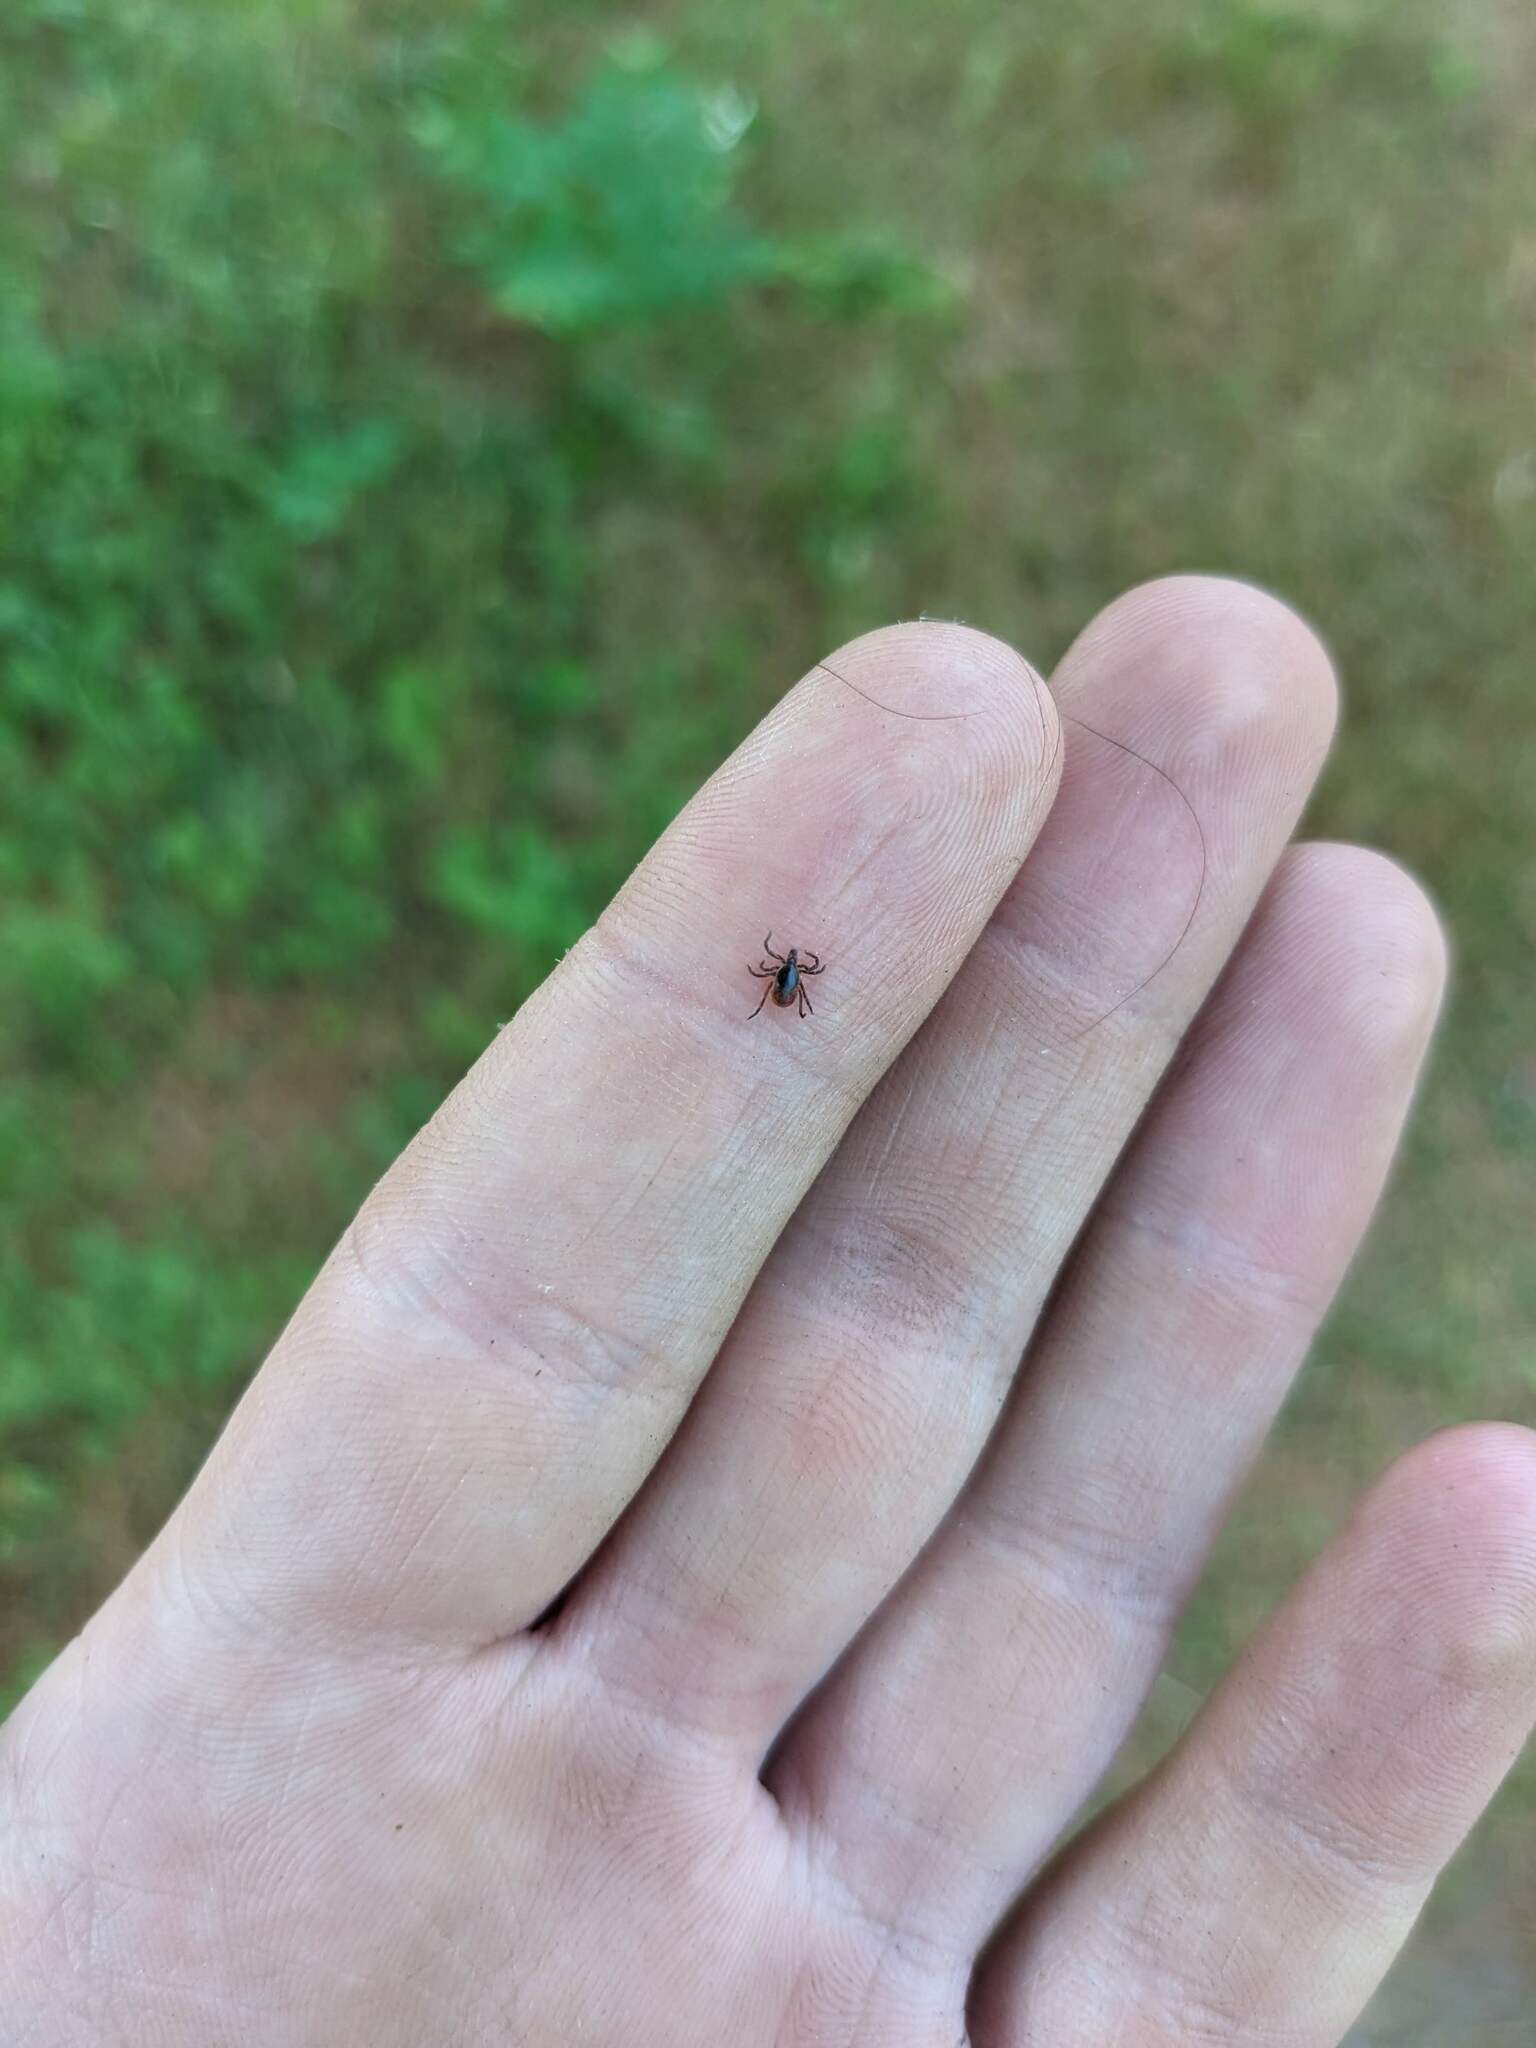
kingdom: Animalia
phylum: Arthropoda
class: Arachnida
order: Ixodida
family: Ixodidae
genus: Ixodes
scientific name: Ixodes scapularis
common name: Black legged tick
